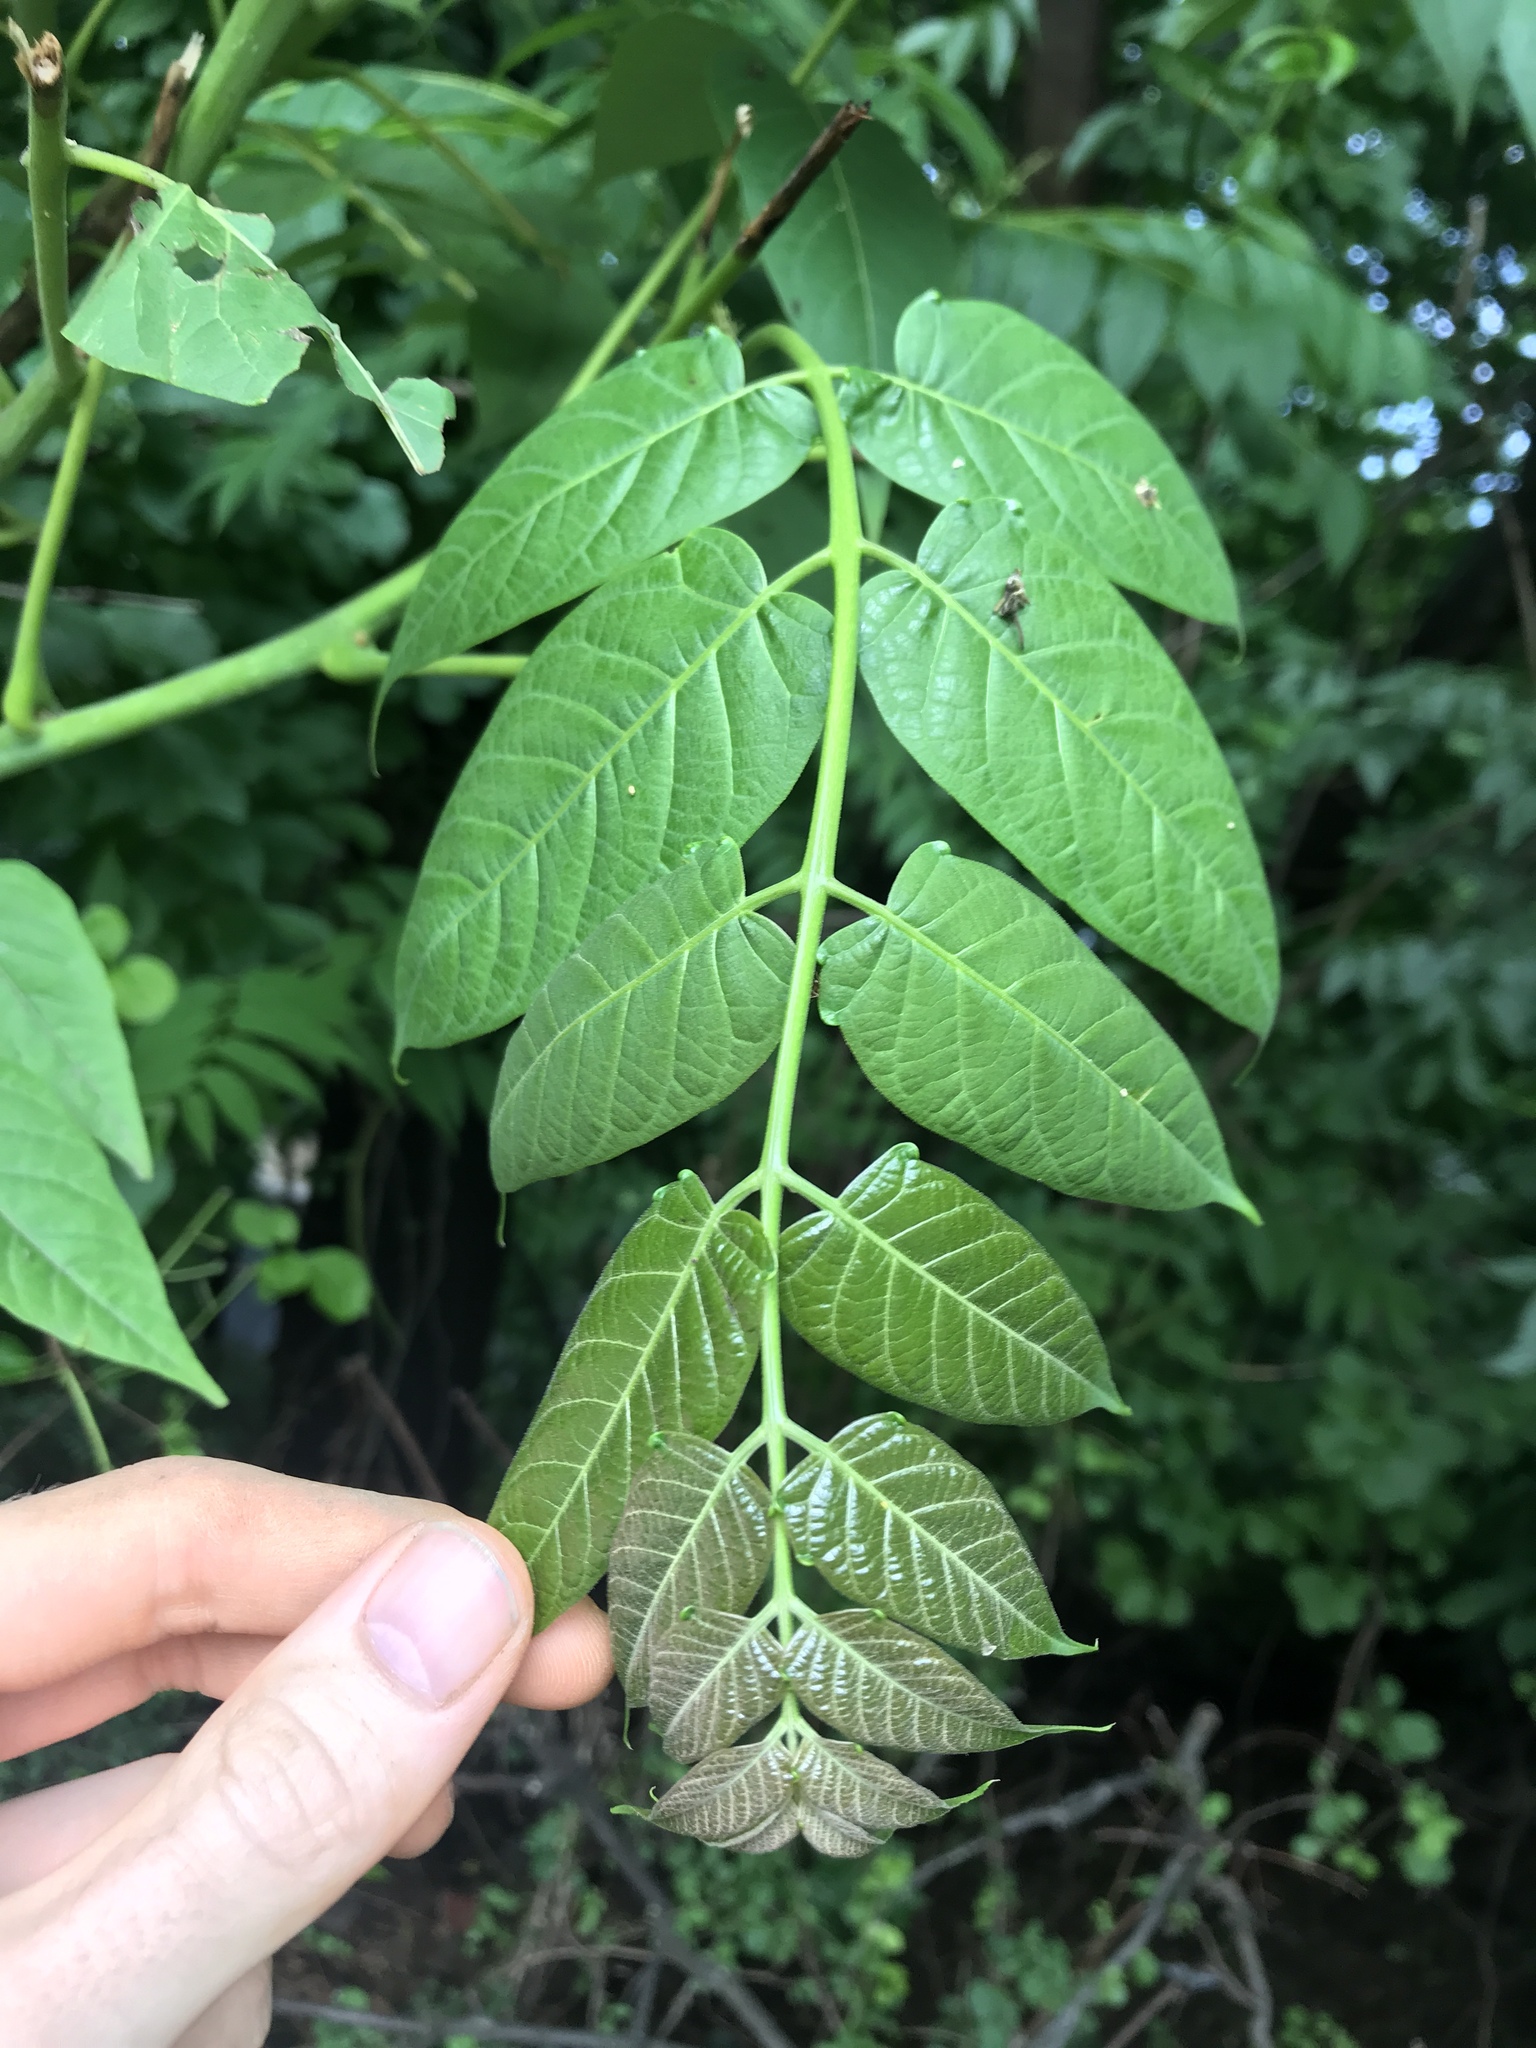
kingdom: Plantae
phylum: Tracheophyta
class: Magnoliopsida
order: Sapindales
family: Simaroubaceae
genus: Ailanthus
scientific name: Ailanthus altissima
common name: Tree-of-heaven
